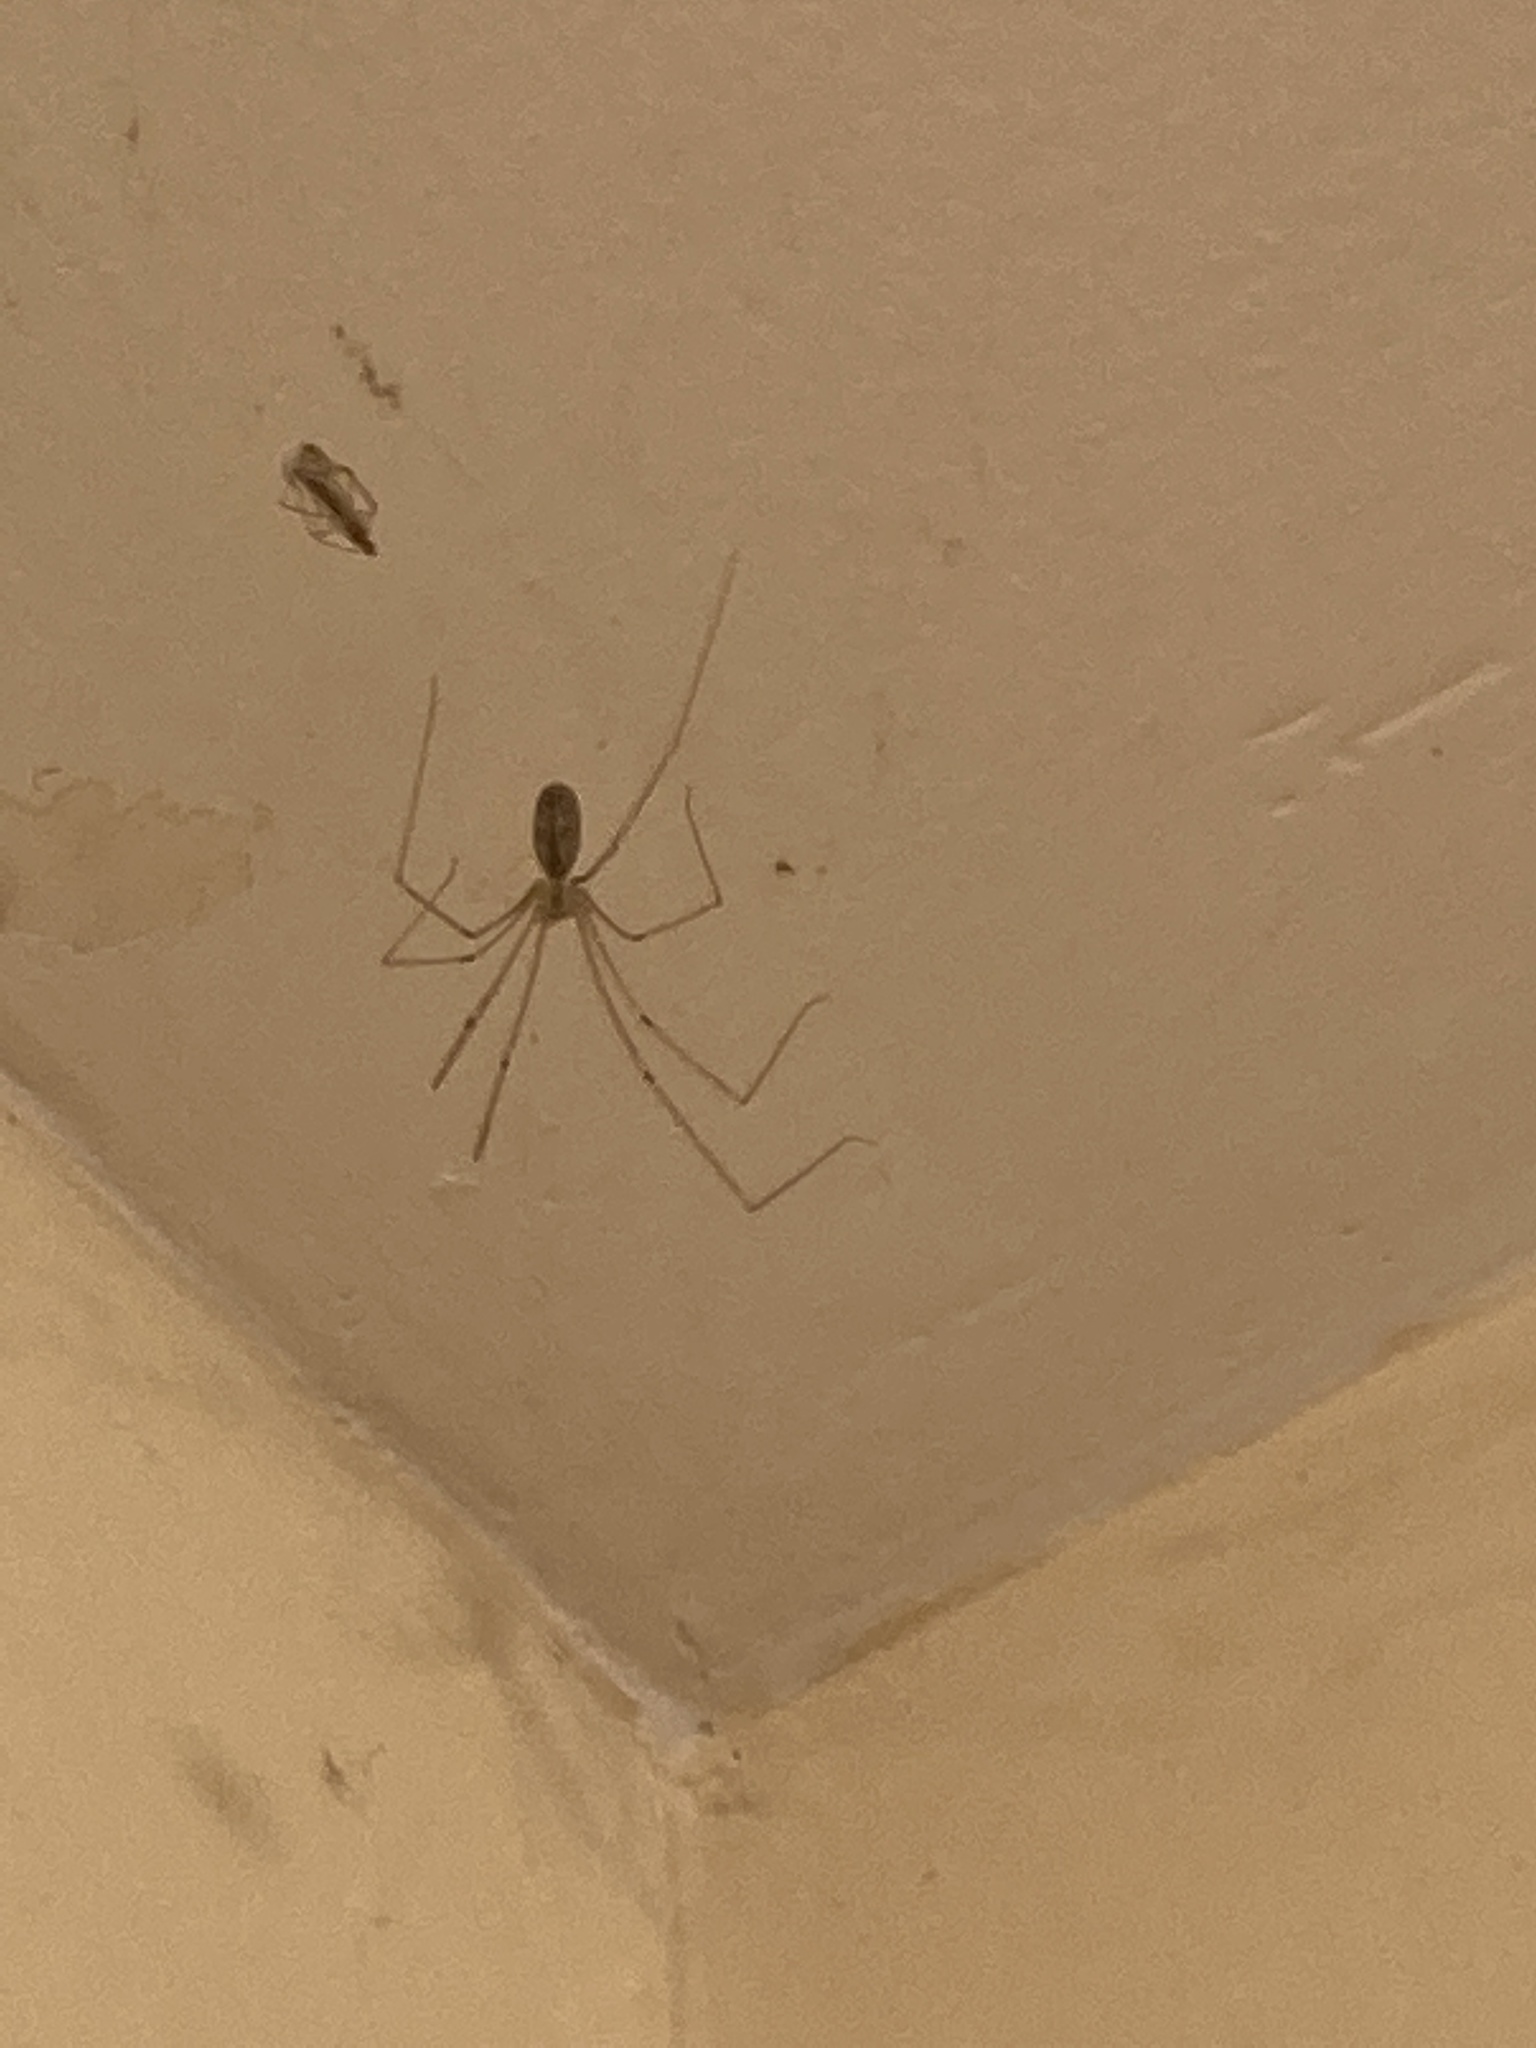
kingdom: Animalia
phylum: Arthropoda
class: Arachnida
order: Araneae
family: Pholcidae
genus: Pholcus
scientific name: Pholcus phalangioides
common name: Longbodied cellar spider
